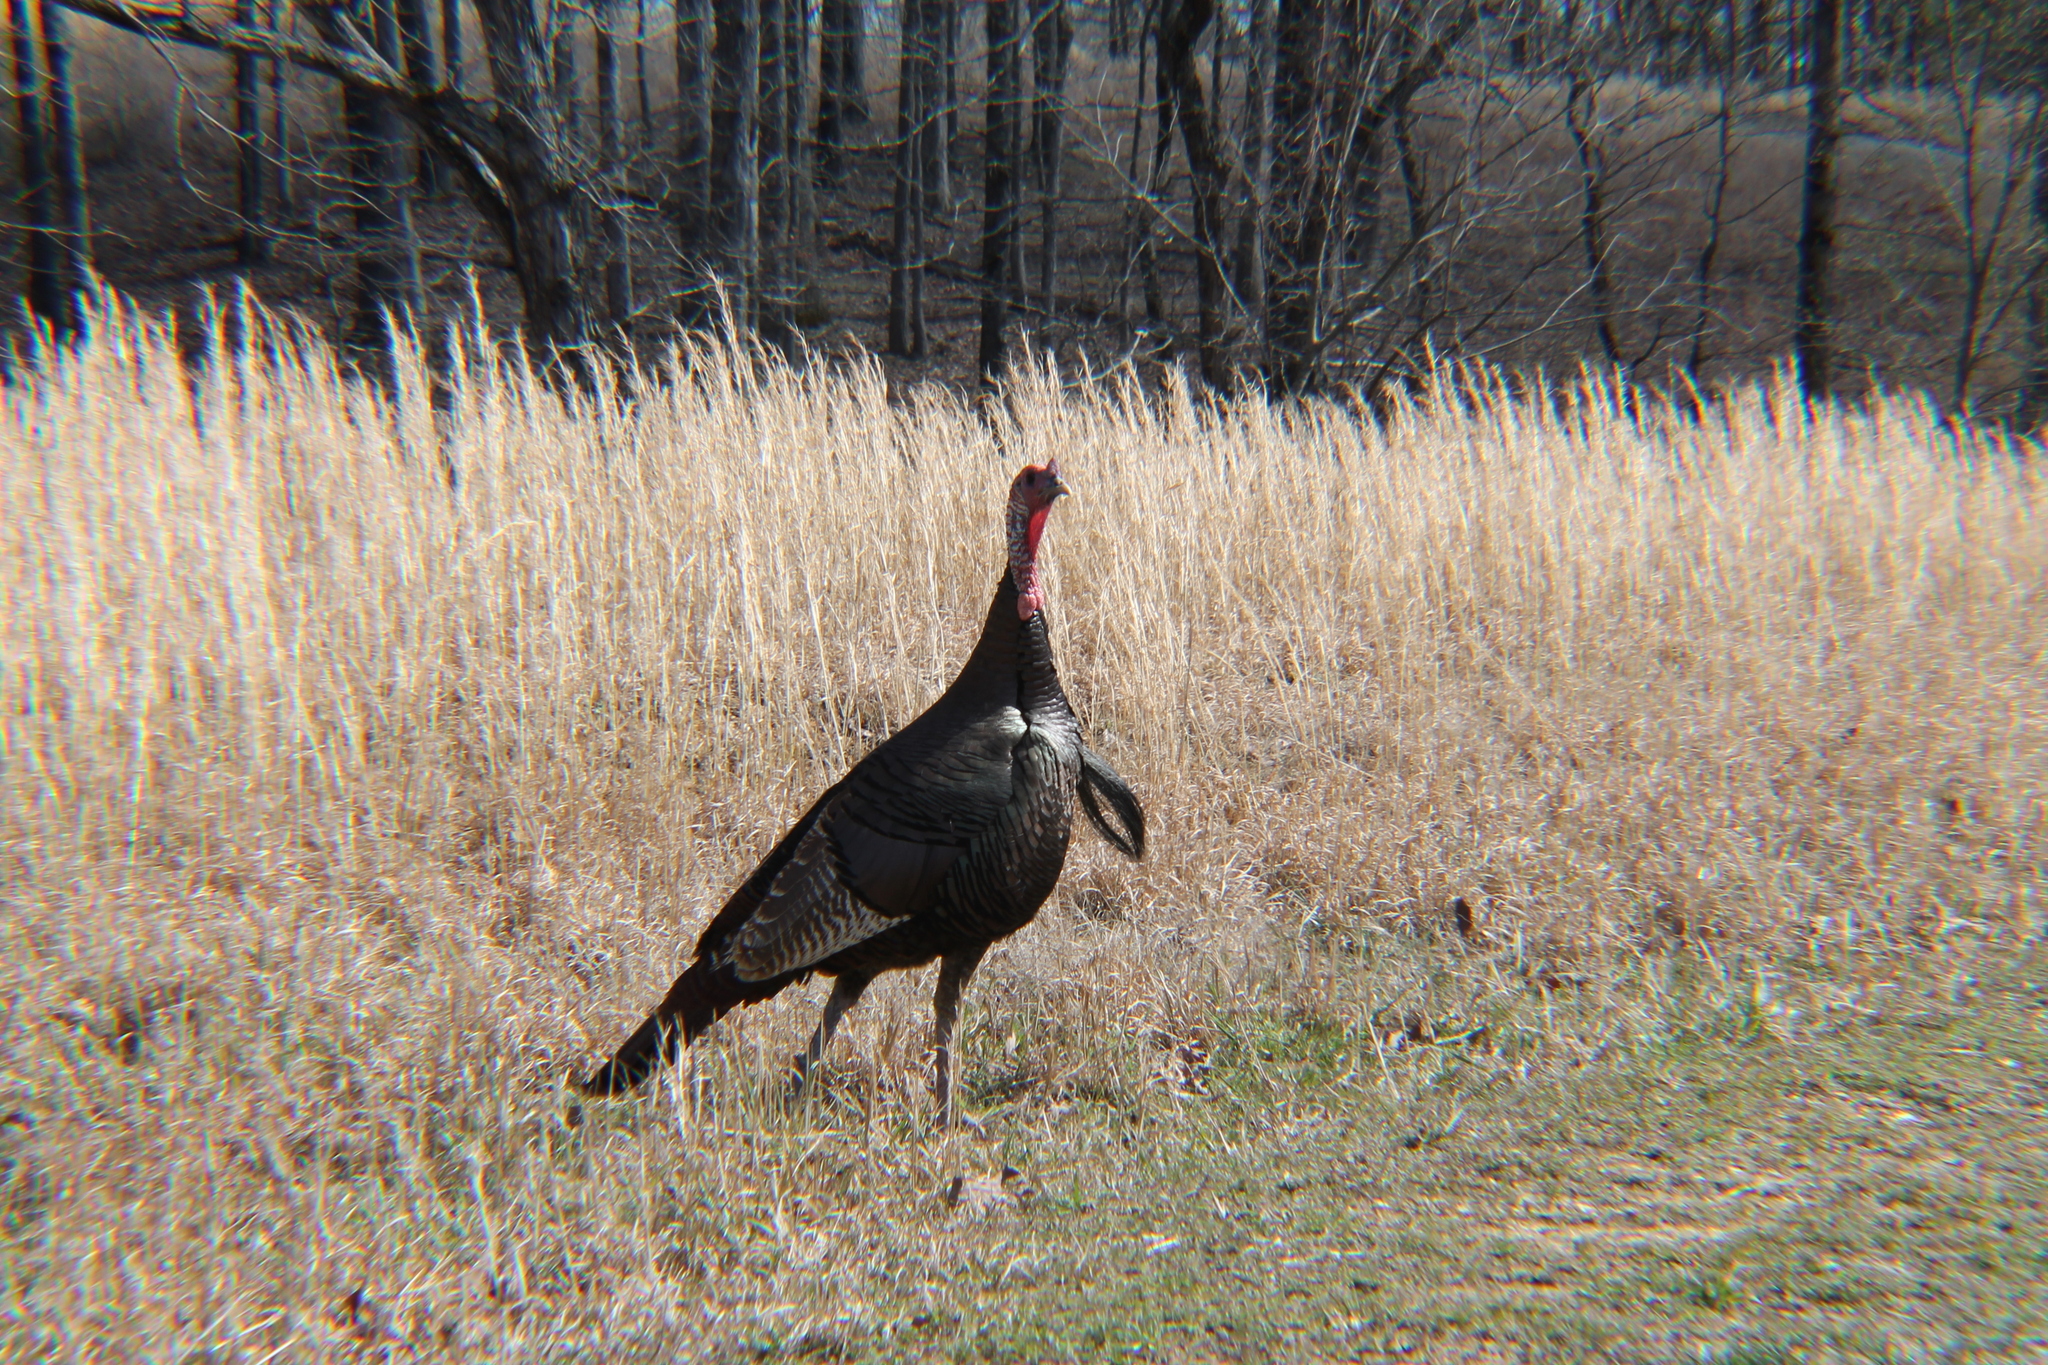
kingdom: Animalia
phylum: Chordata
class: Aves
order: Galliformes
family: Phasianidae
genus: Meleagris
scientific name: Meleagris gallopavo
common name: Wild turkey
